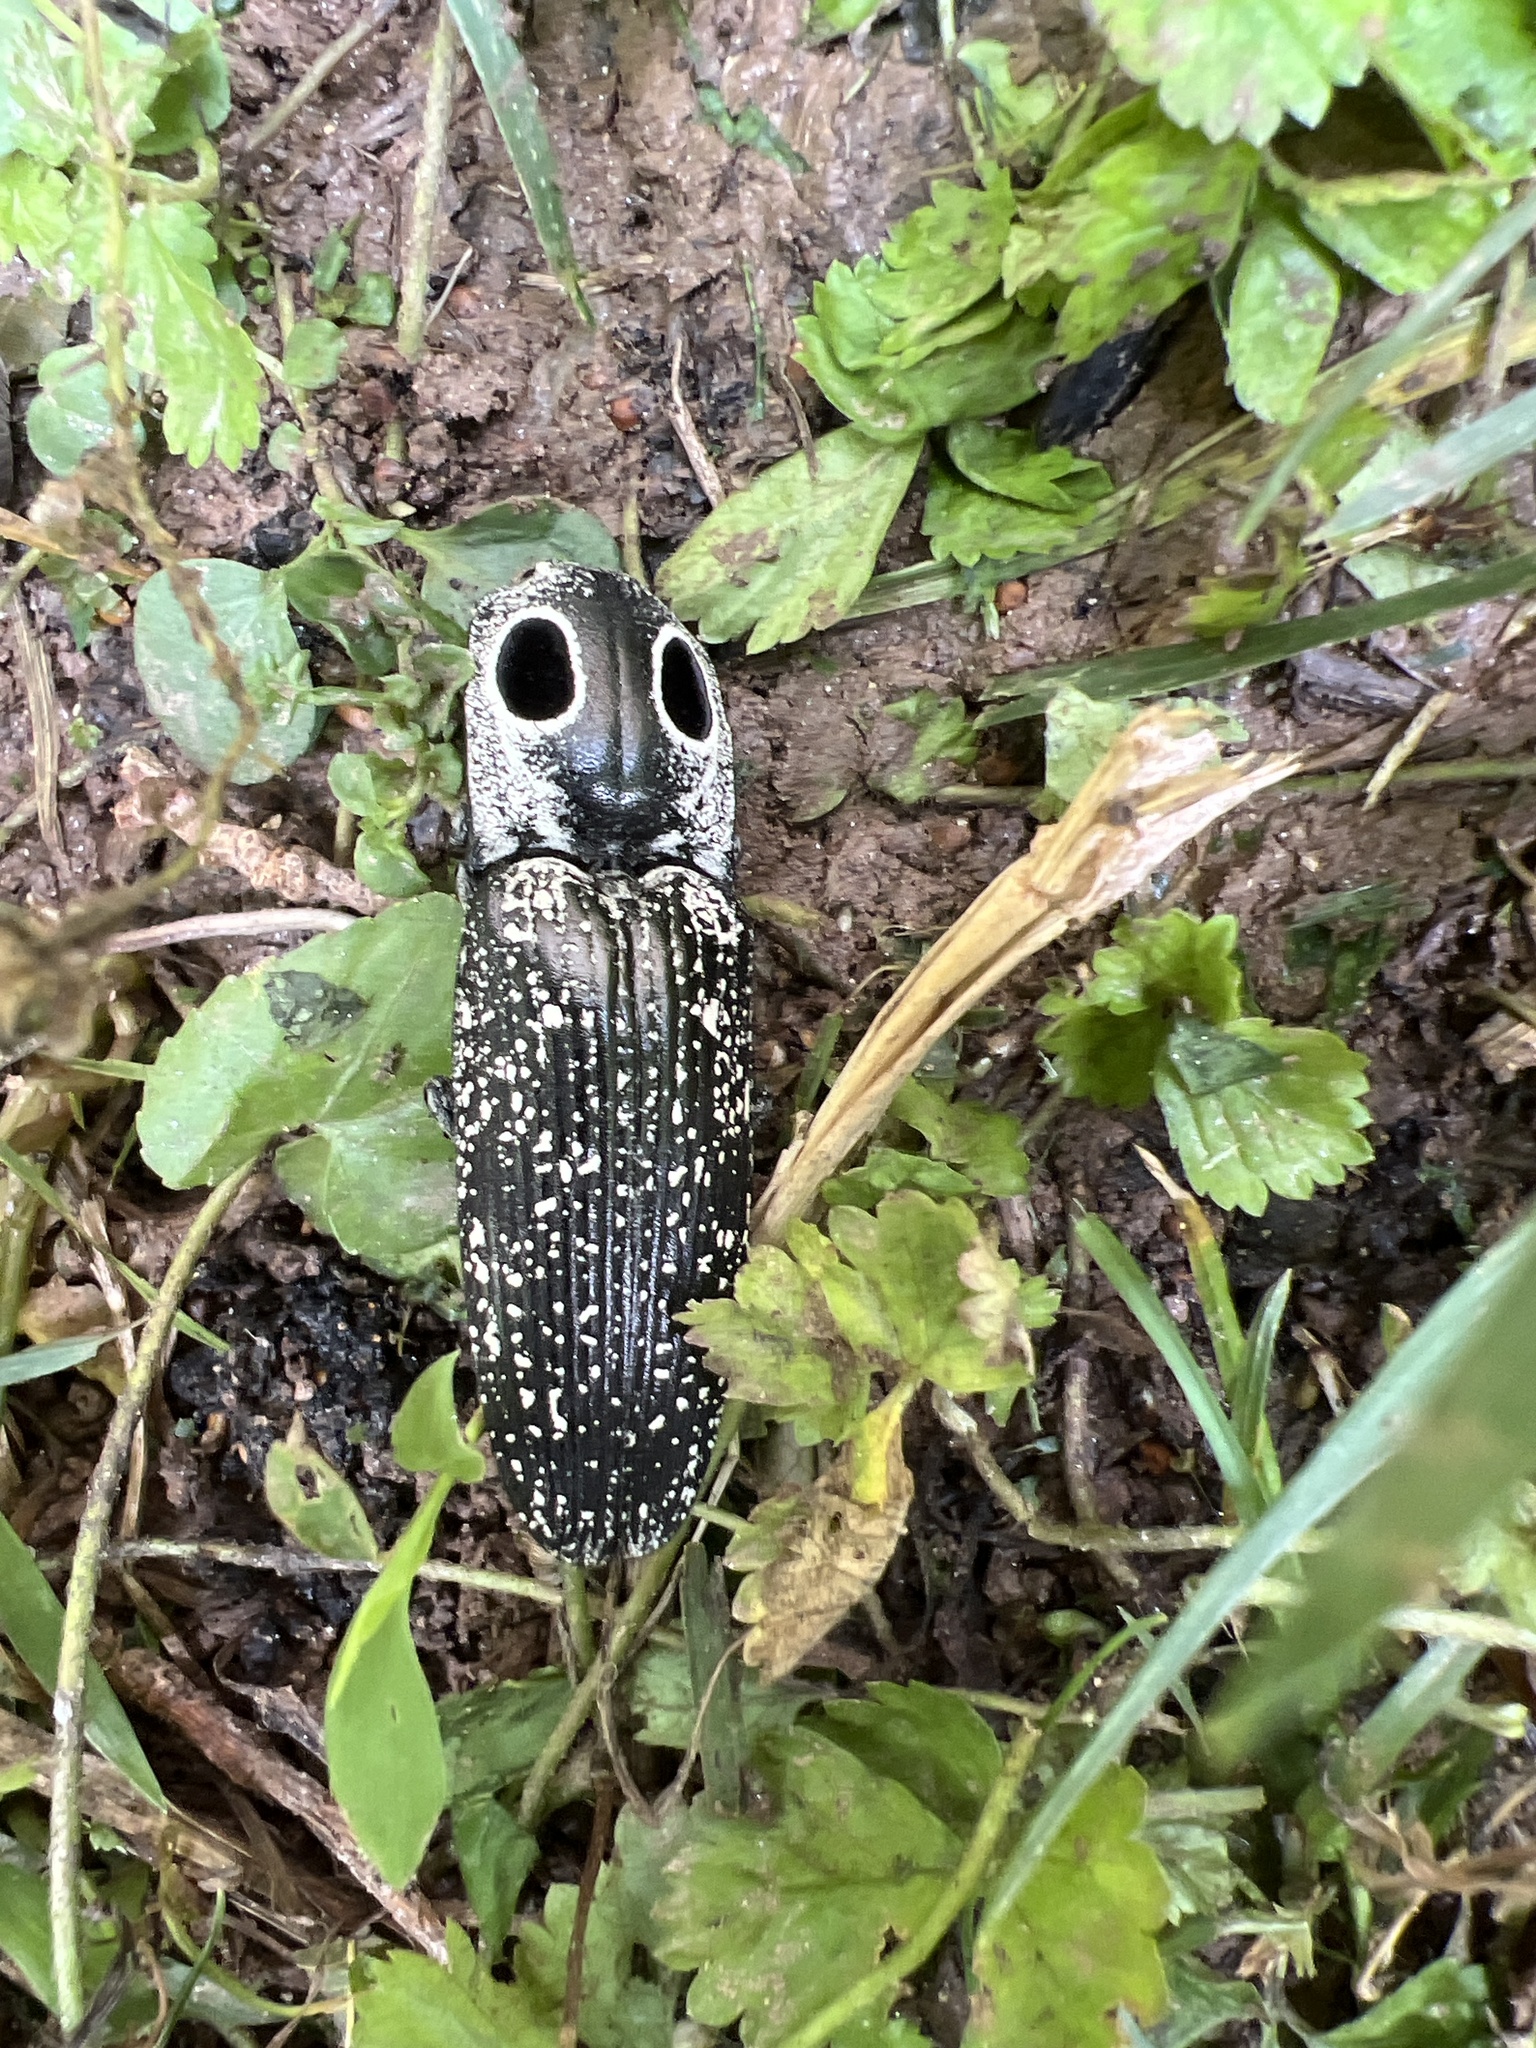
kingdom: Animalia
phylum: Arthropoda
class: Insecta
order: Coleoptera
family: Elateridae
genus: Alaus
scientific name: Alaus oculatus
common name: Eastern eyed click beetle
